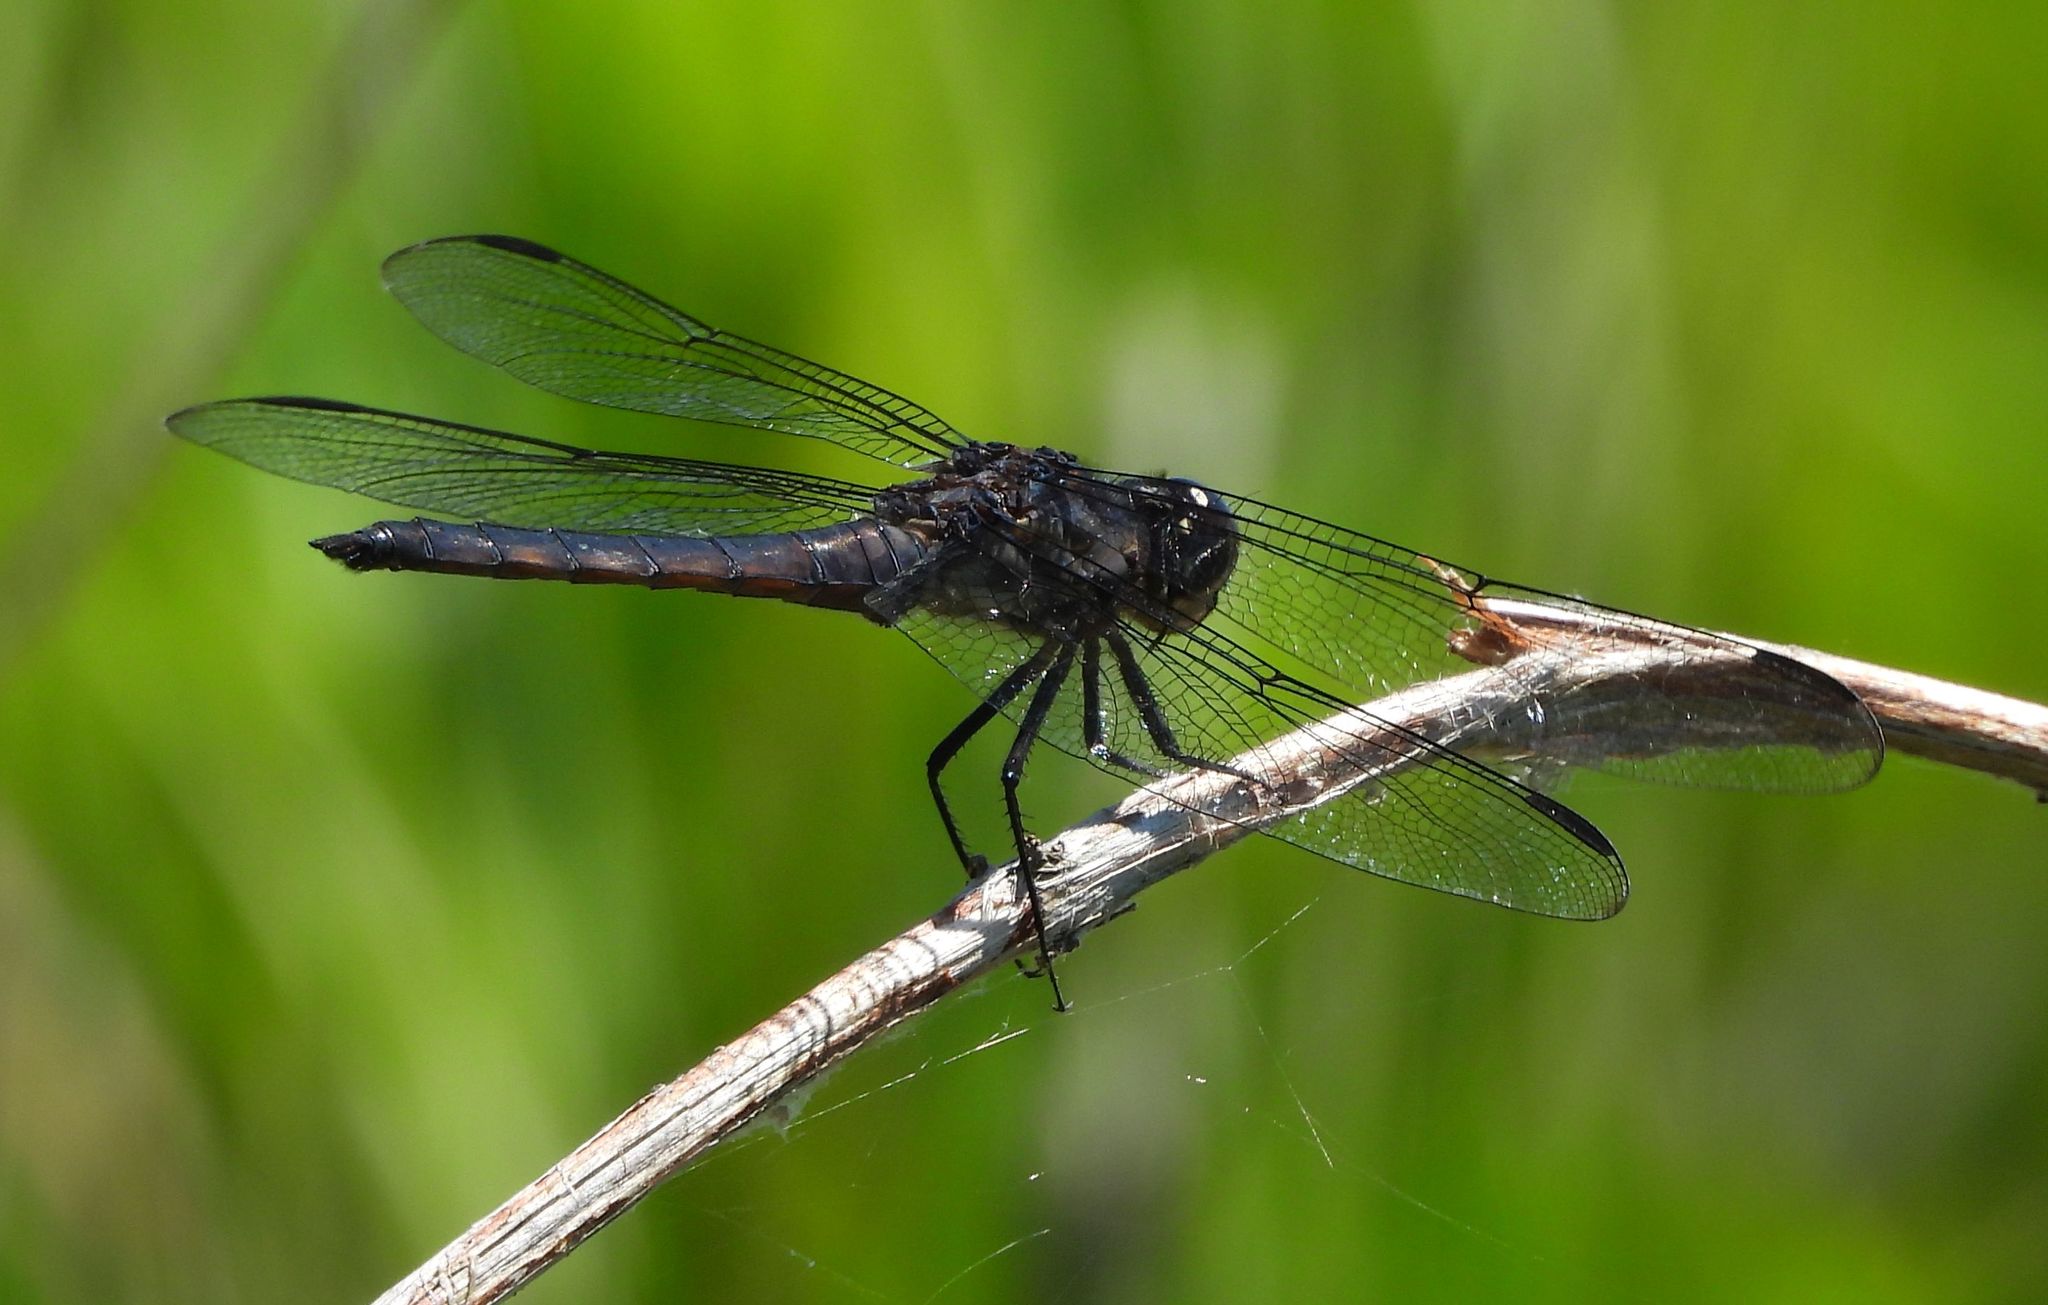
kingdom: Animalia
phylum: Arthropoda
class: Insecta
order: Odonata
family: Libellulidae
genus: Libellula
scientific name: Libellula incesta
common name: Slaty skimmer
